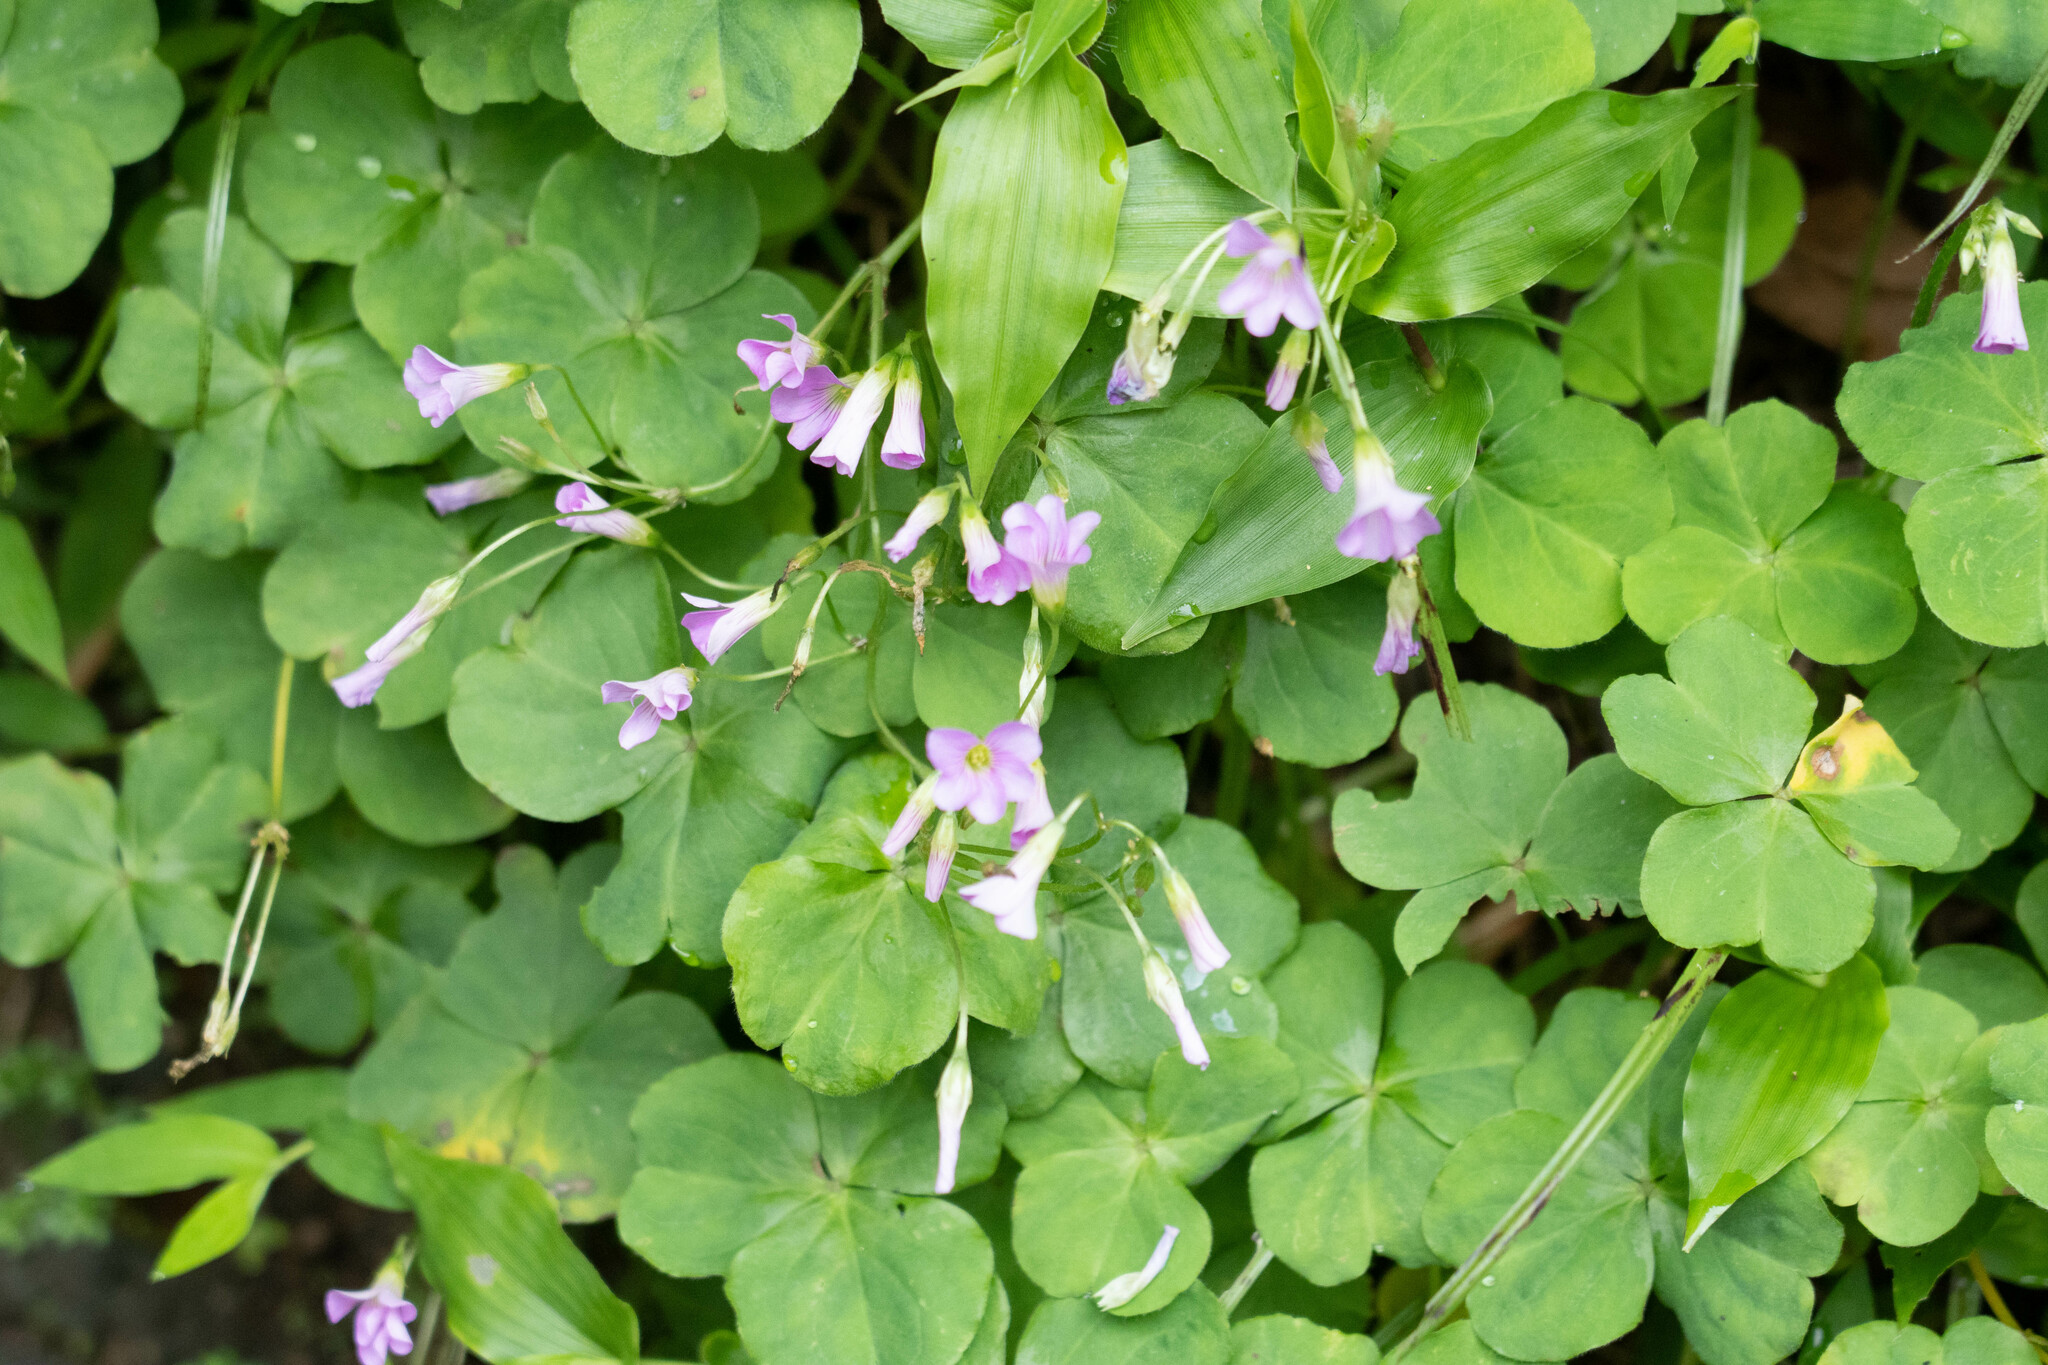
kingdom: Plantae
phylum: Tracheophyta
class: Magnoliopsida
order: Oxalidales
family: Oxalidaceae
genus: Oxalis
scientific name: Oxalis debilis
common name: Large-flowered pink-sorrel
